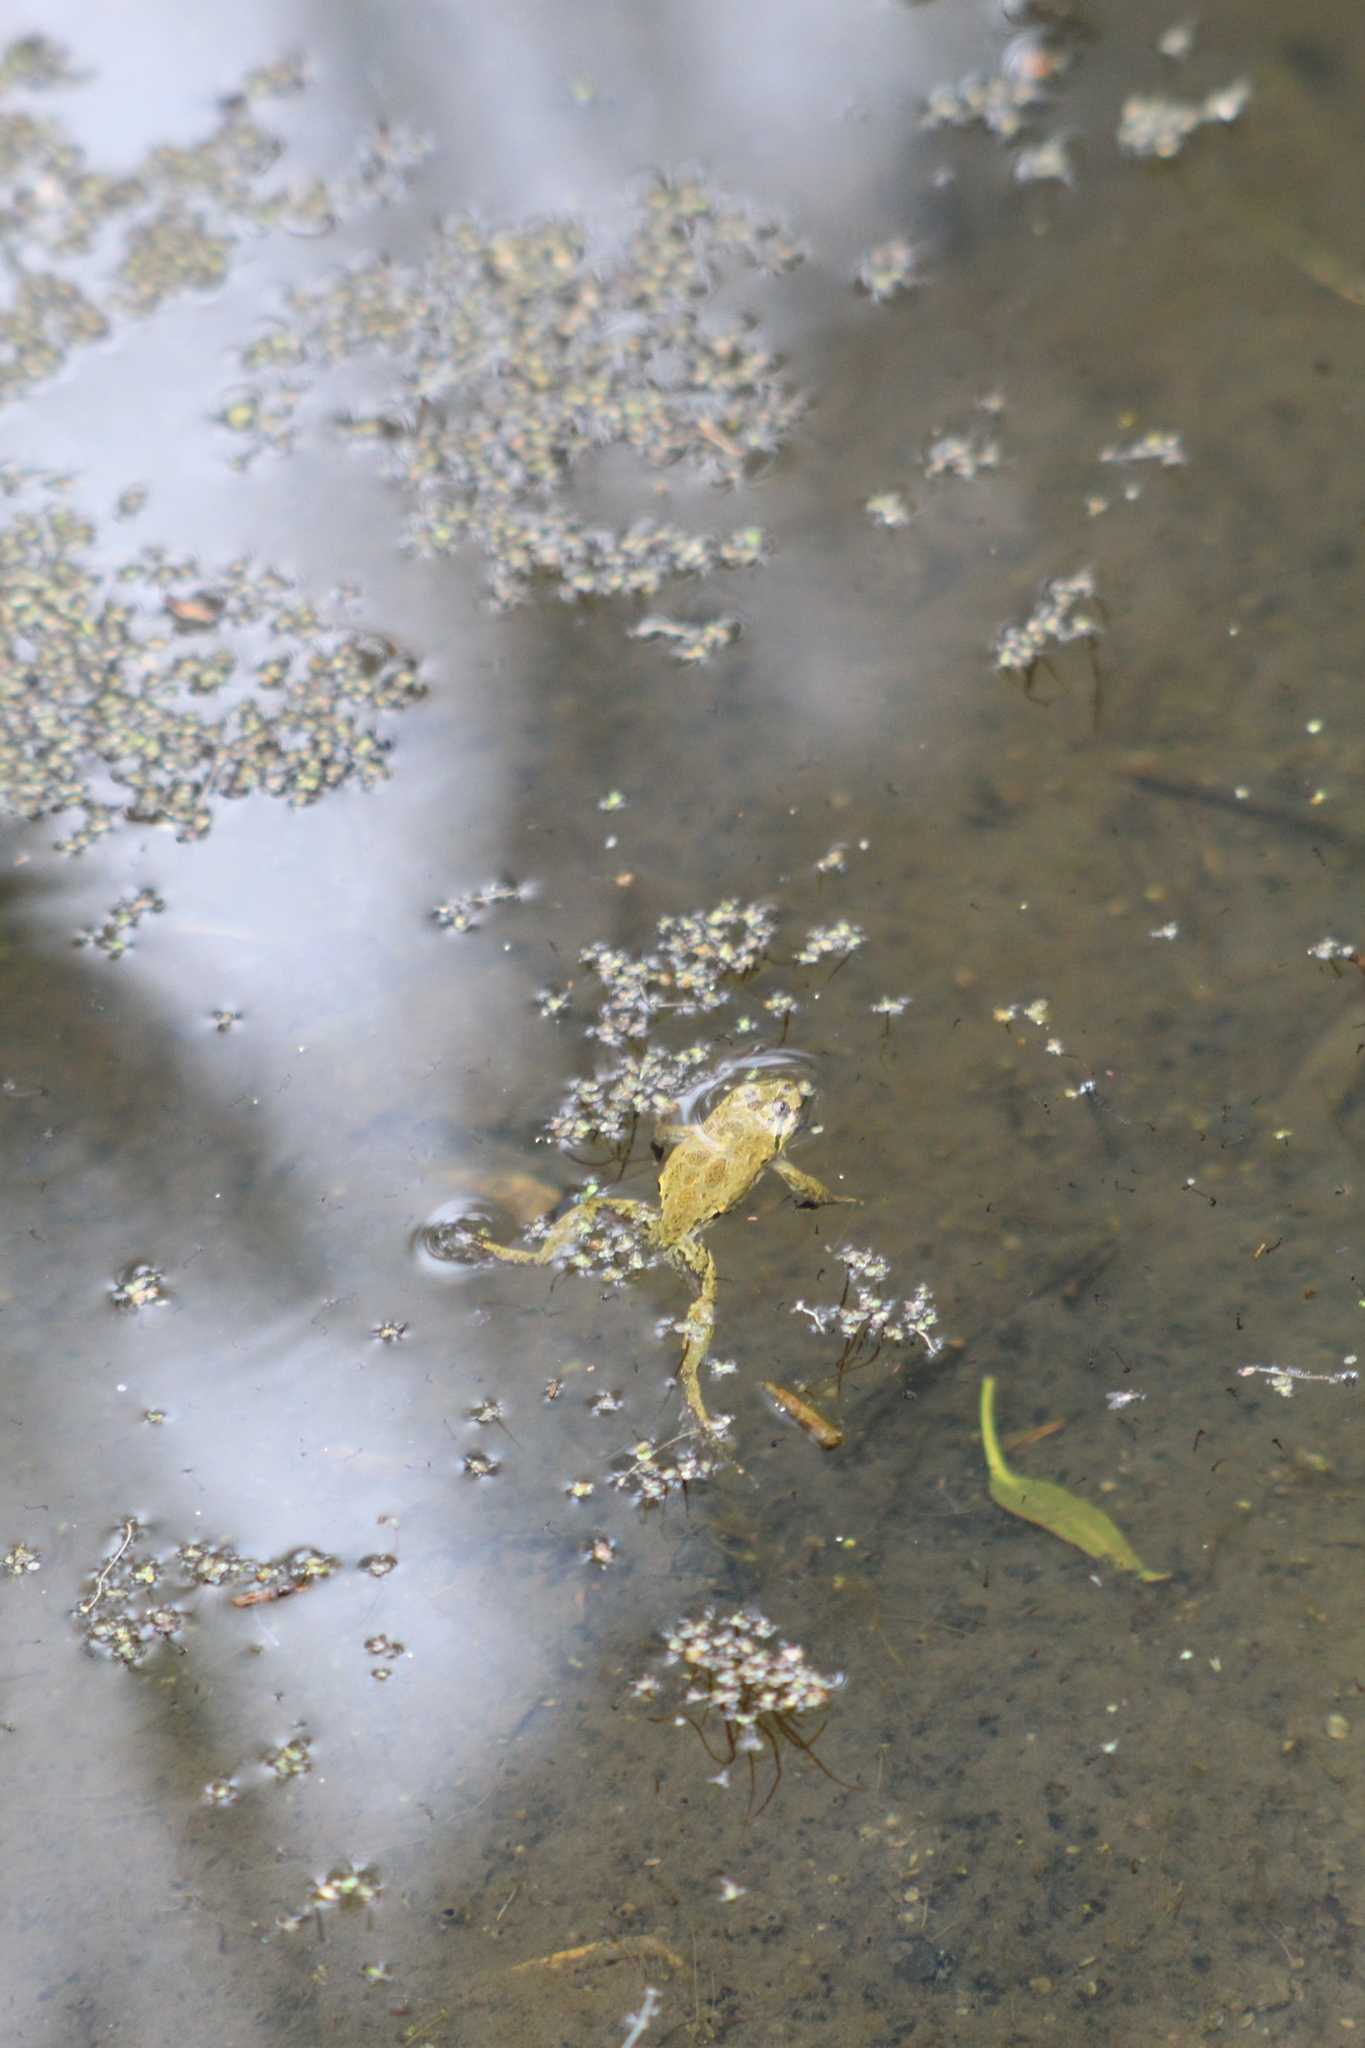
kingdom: Animalia
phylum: Chordata
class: Amphibia
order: Anura
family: Leptodactylidae
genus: Pleurodema
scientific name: Pleurodema thaul
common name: Chile four-eyed frog
